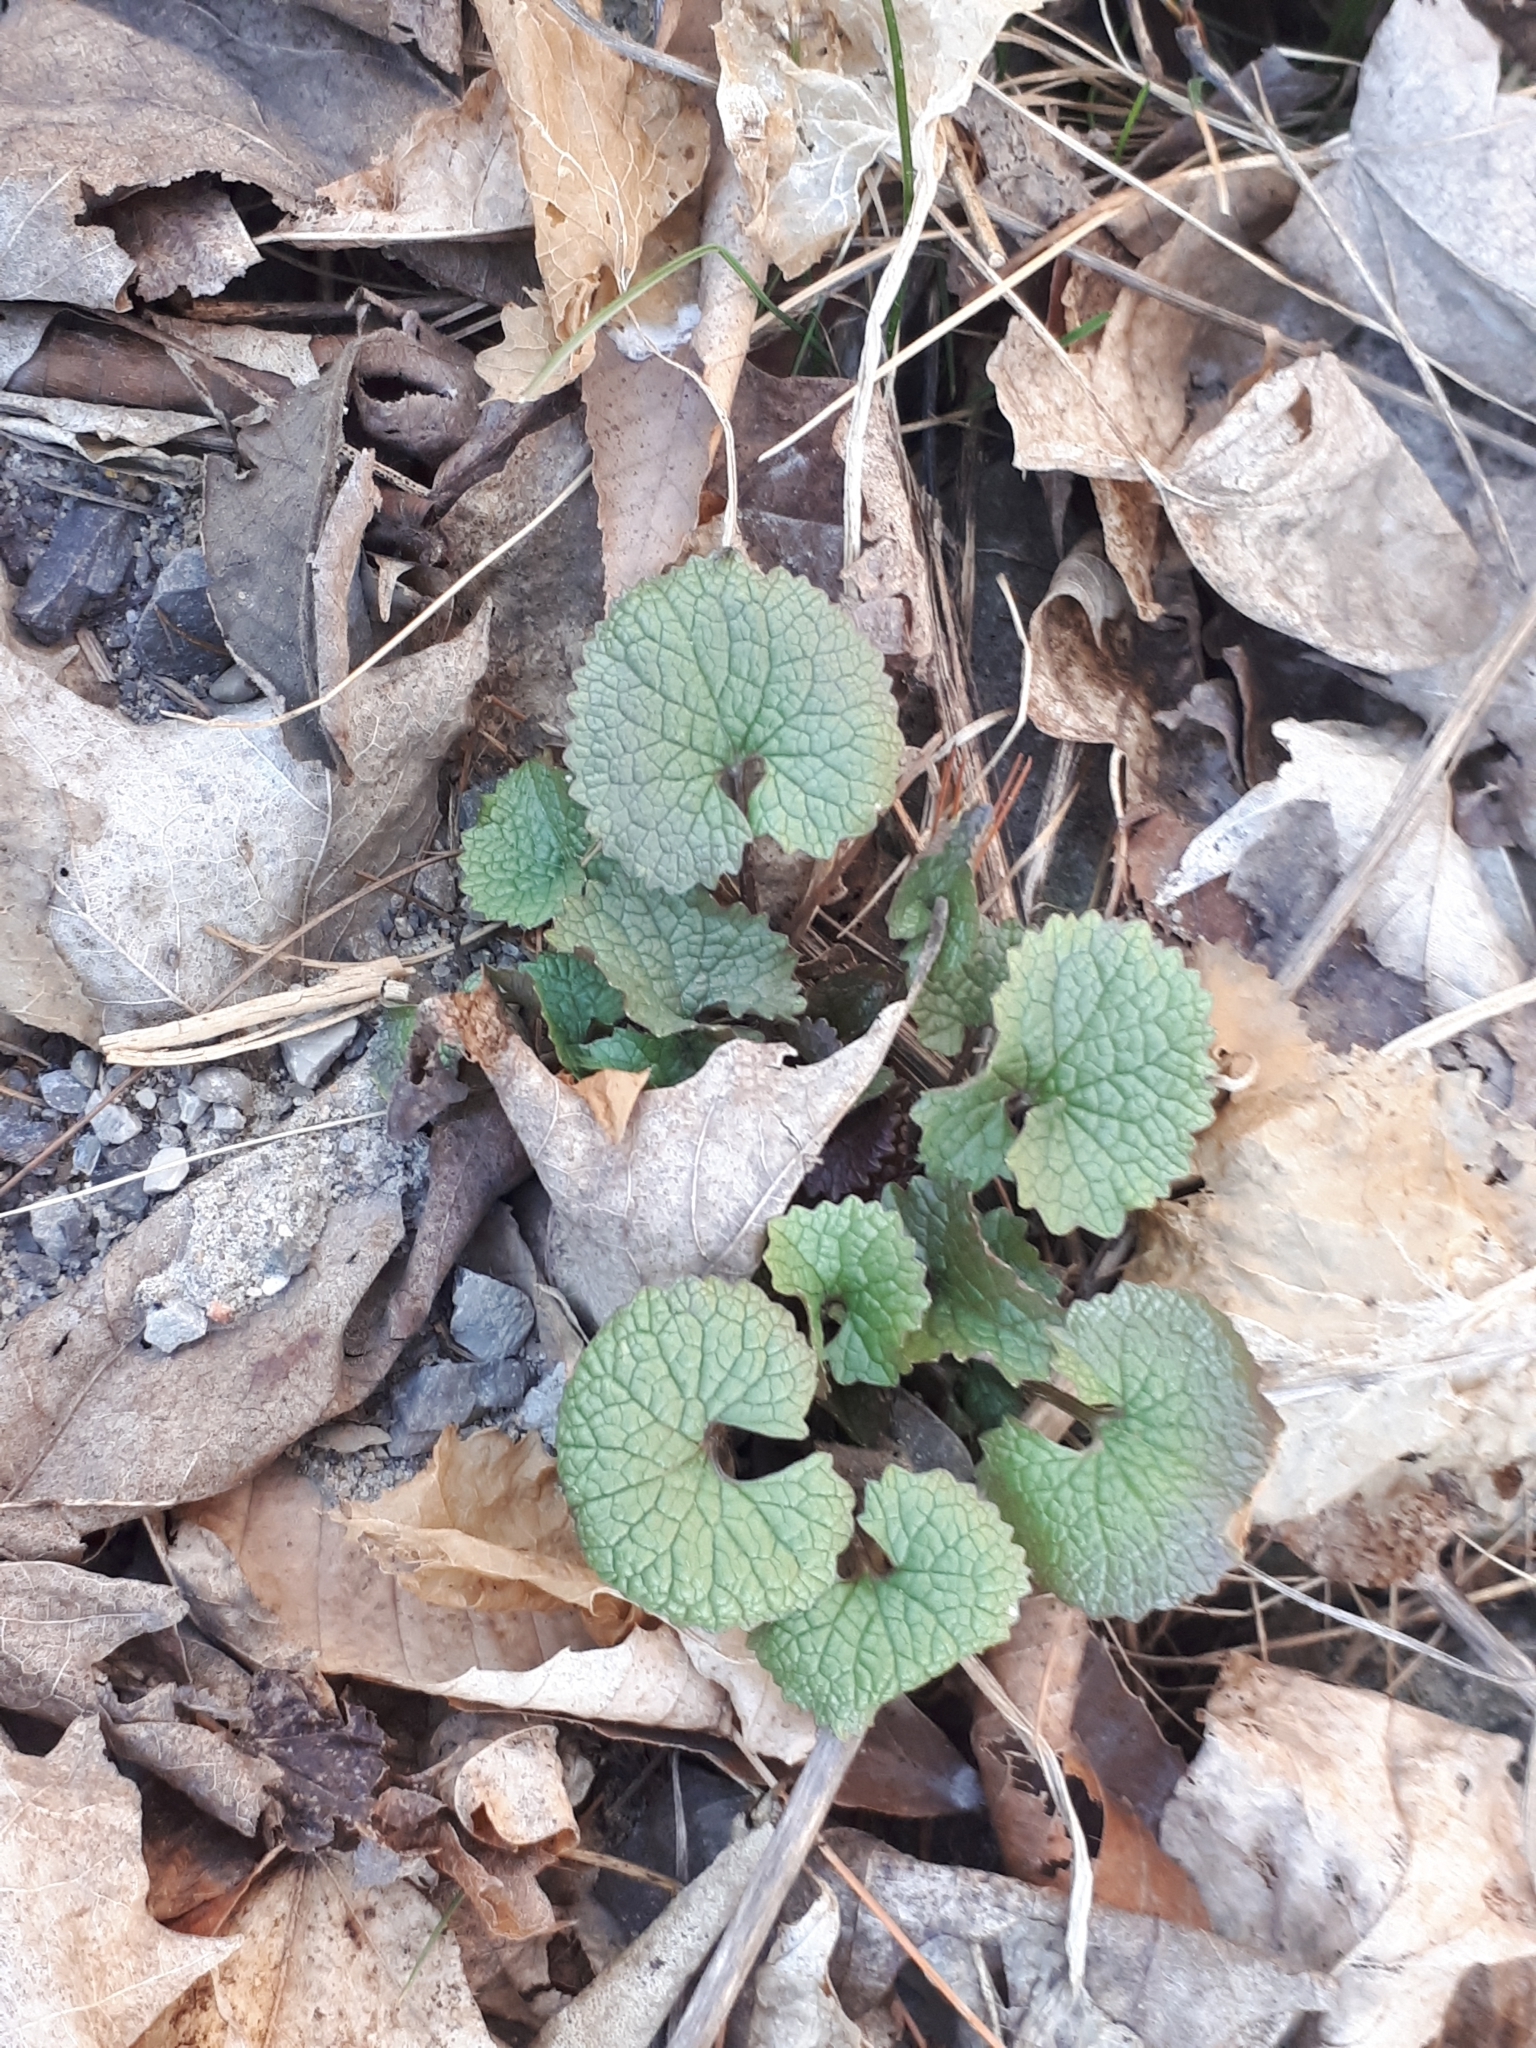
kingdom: Plantae
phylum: Tracheophyta
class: Magnoliopsida
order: Brassicales
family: Brassicaceae
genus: Alliaria
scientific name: Alliaria petiolata
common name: Garlic mustard
